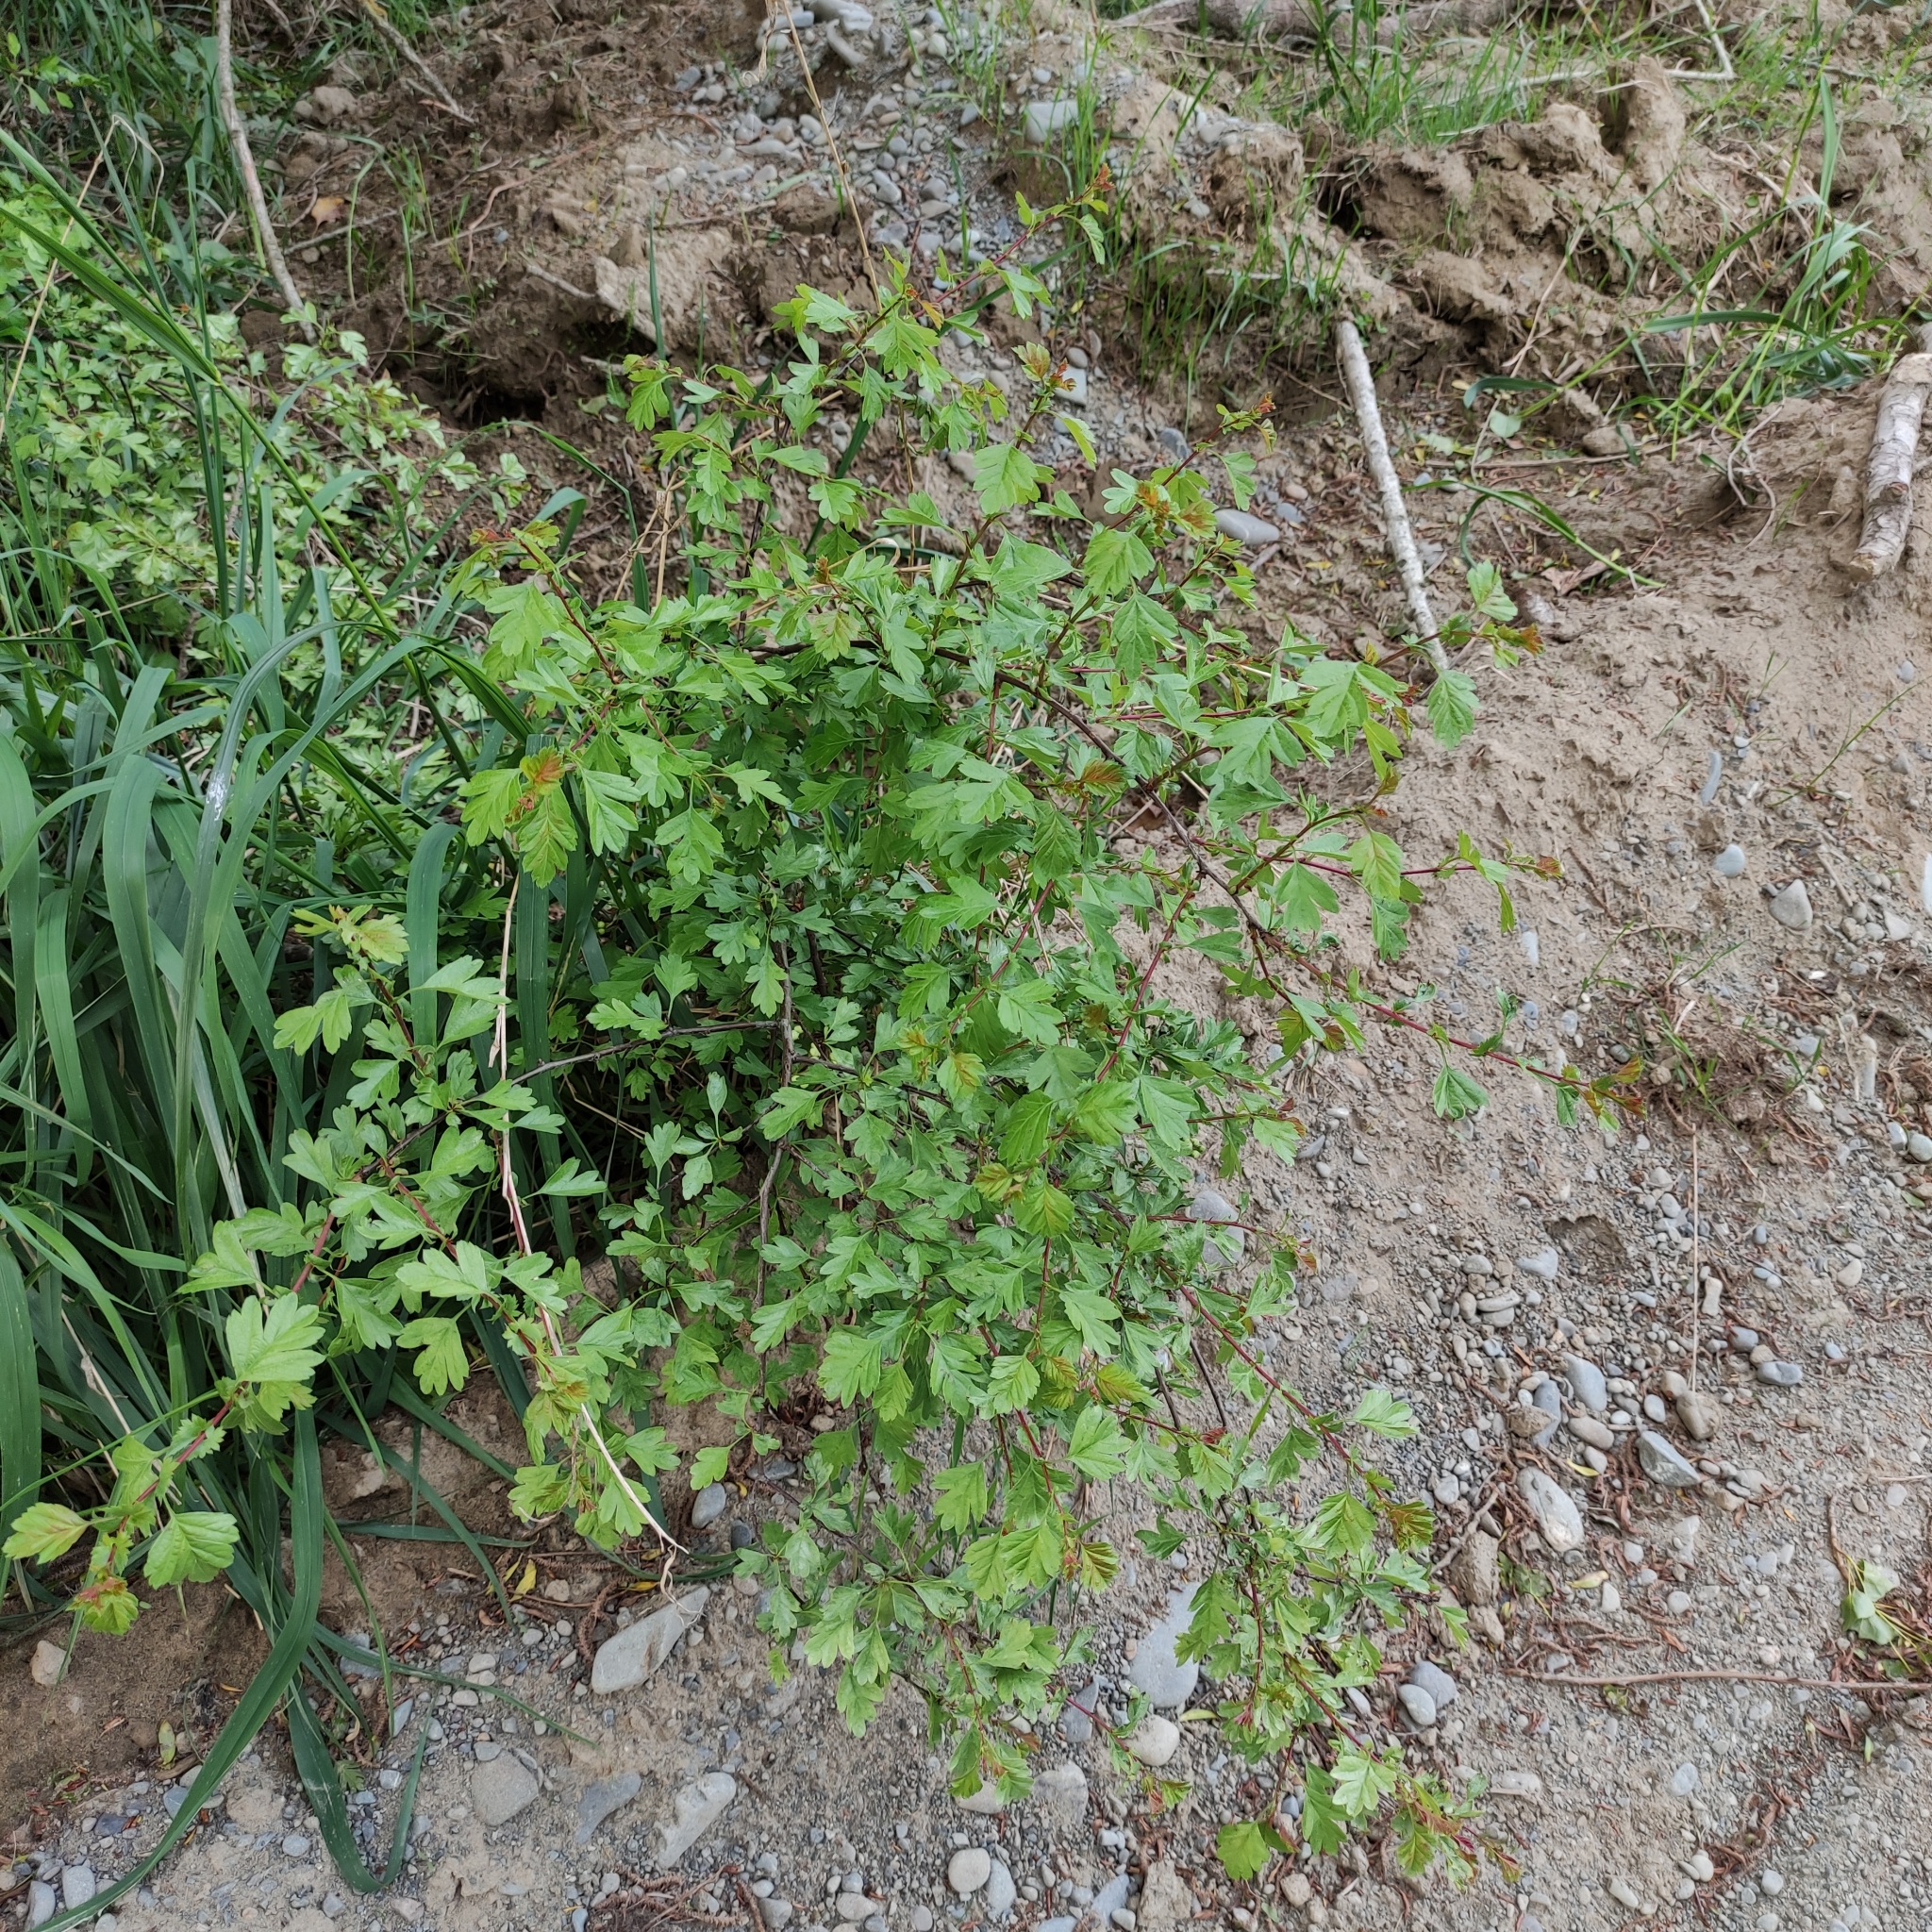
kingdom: Plantae
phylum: Tracheophyta
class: Magnoliopsida
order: Rosales
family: Rosaceae
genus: Crataegus
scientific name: Crataegus monogyna
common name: Hawthorn
